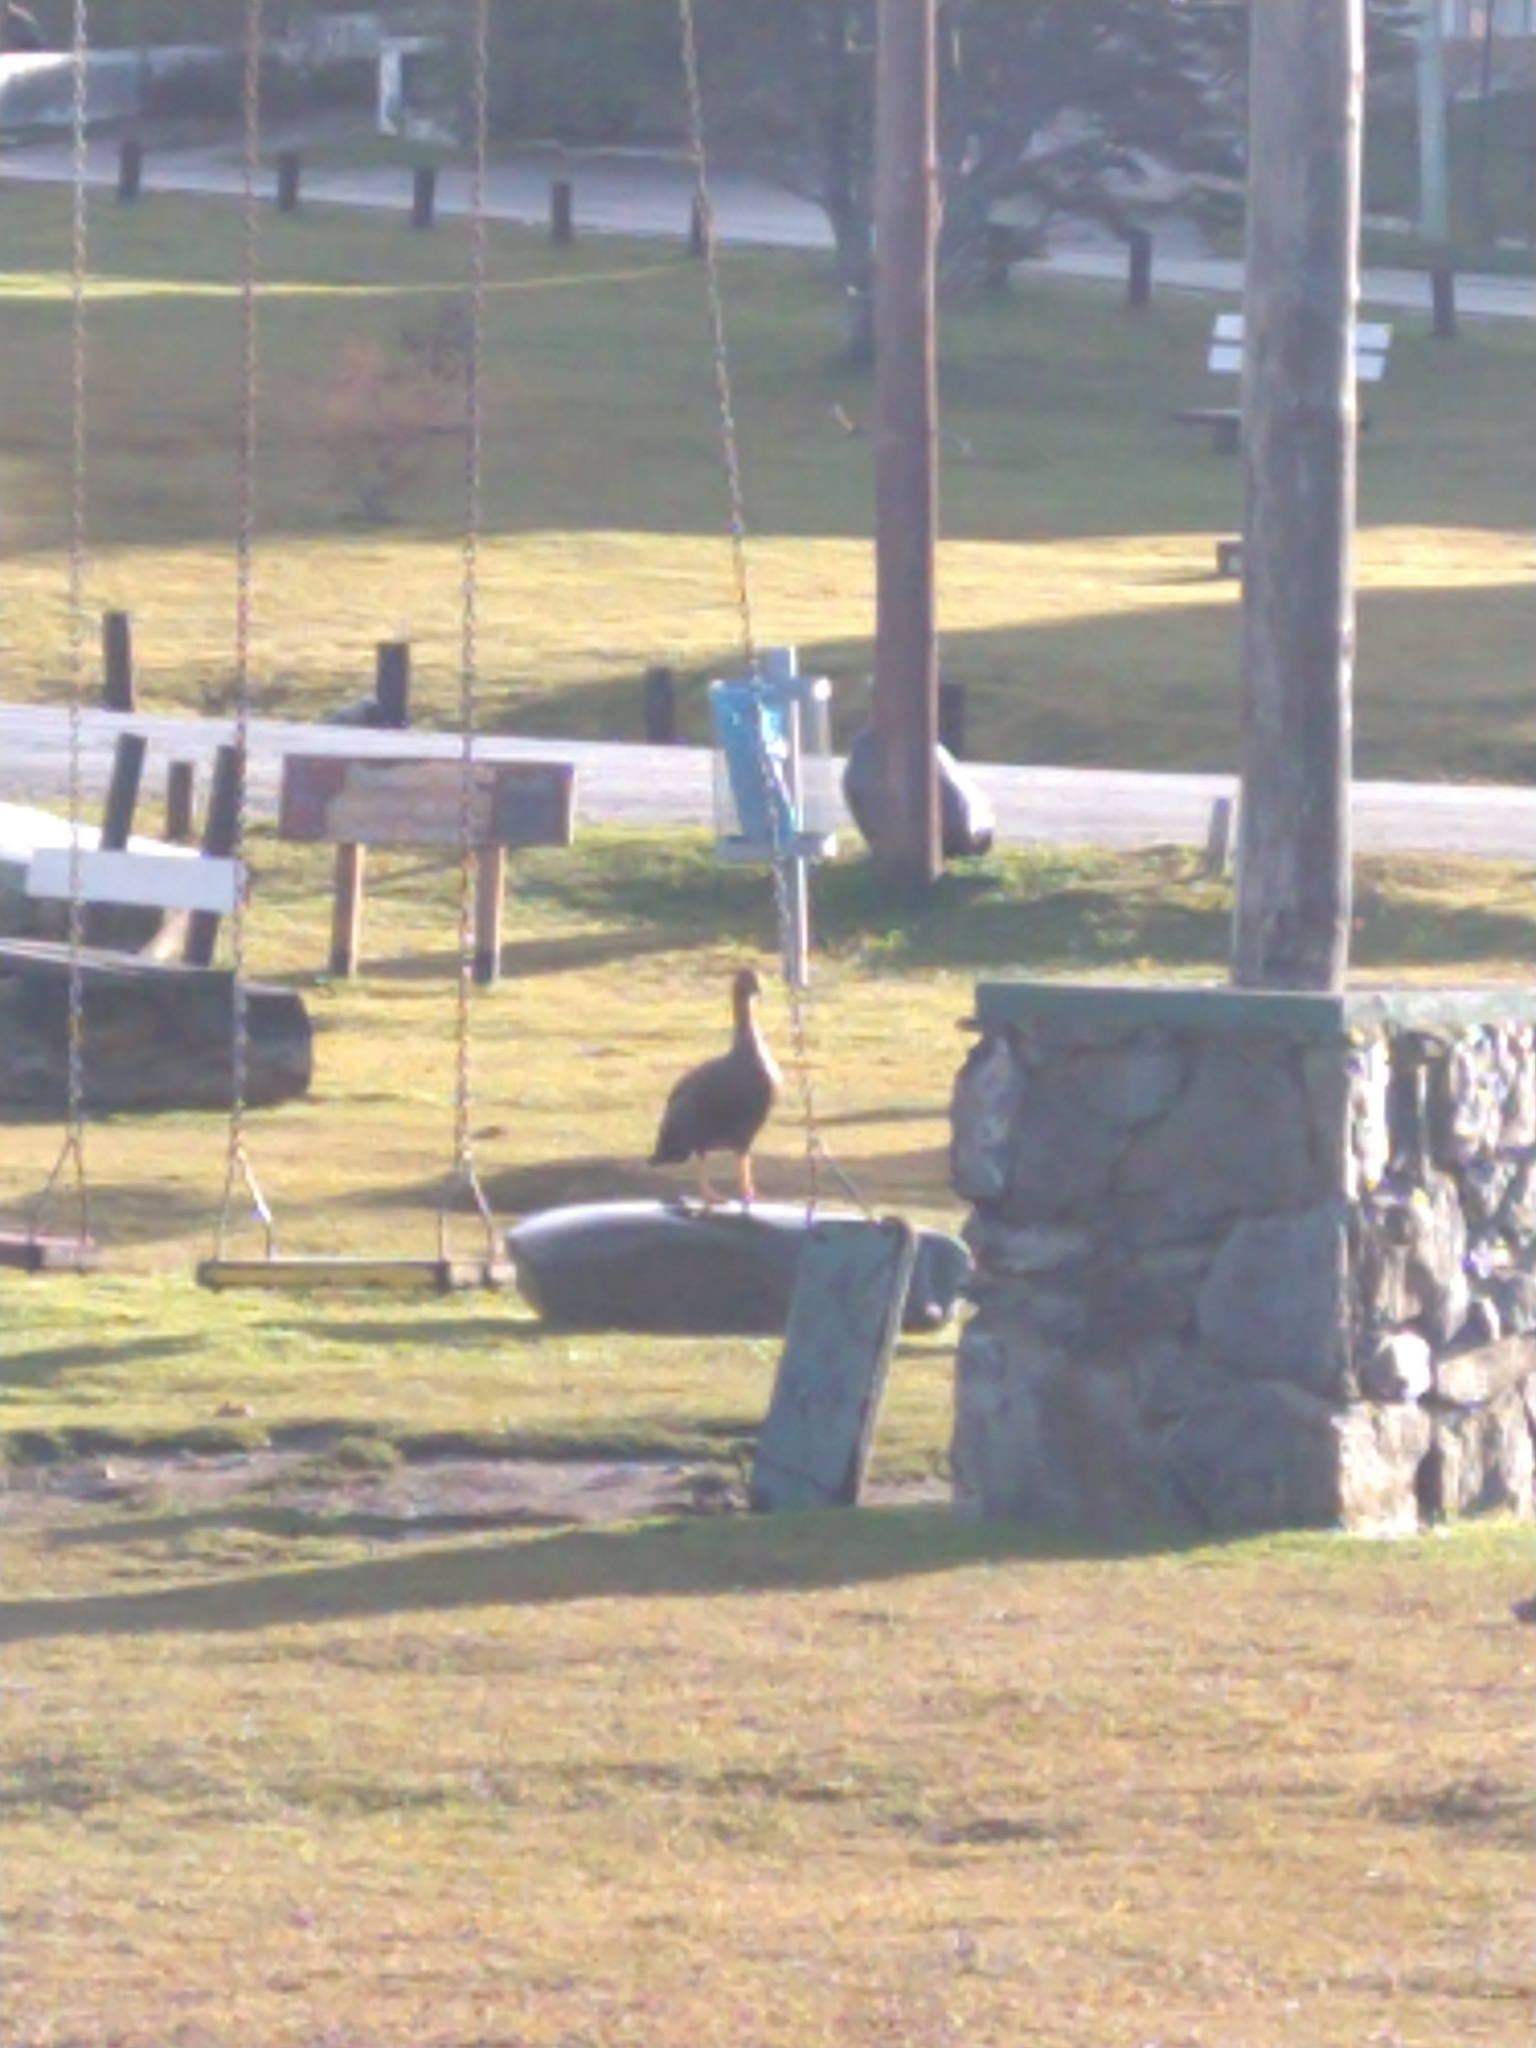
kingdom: Animalia
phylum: Chordata
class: Aves
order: Anseriformes
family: Anatidae
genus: Chloephaga
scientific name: Chloephaga picta
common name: Upland goose
